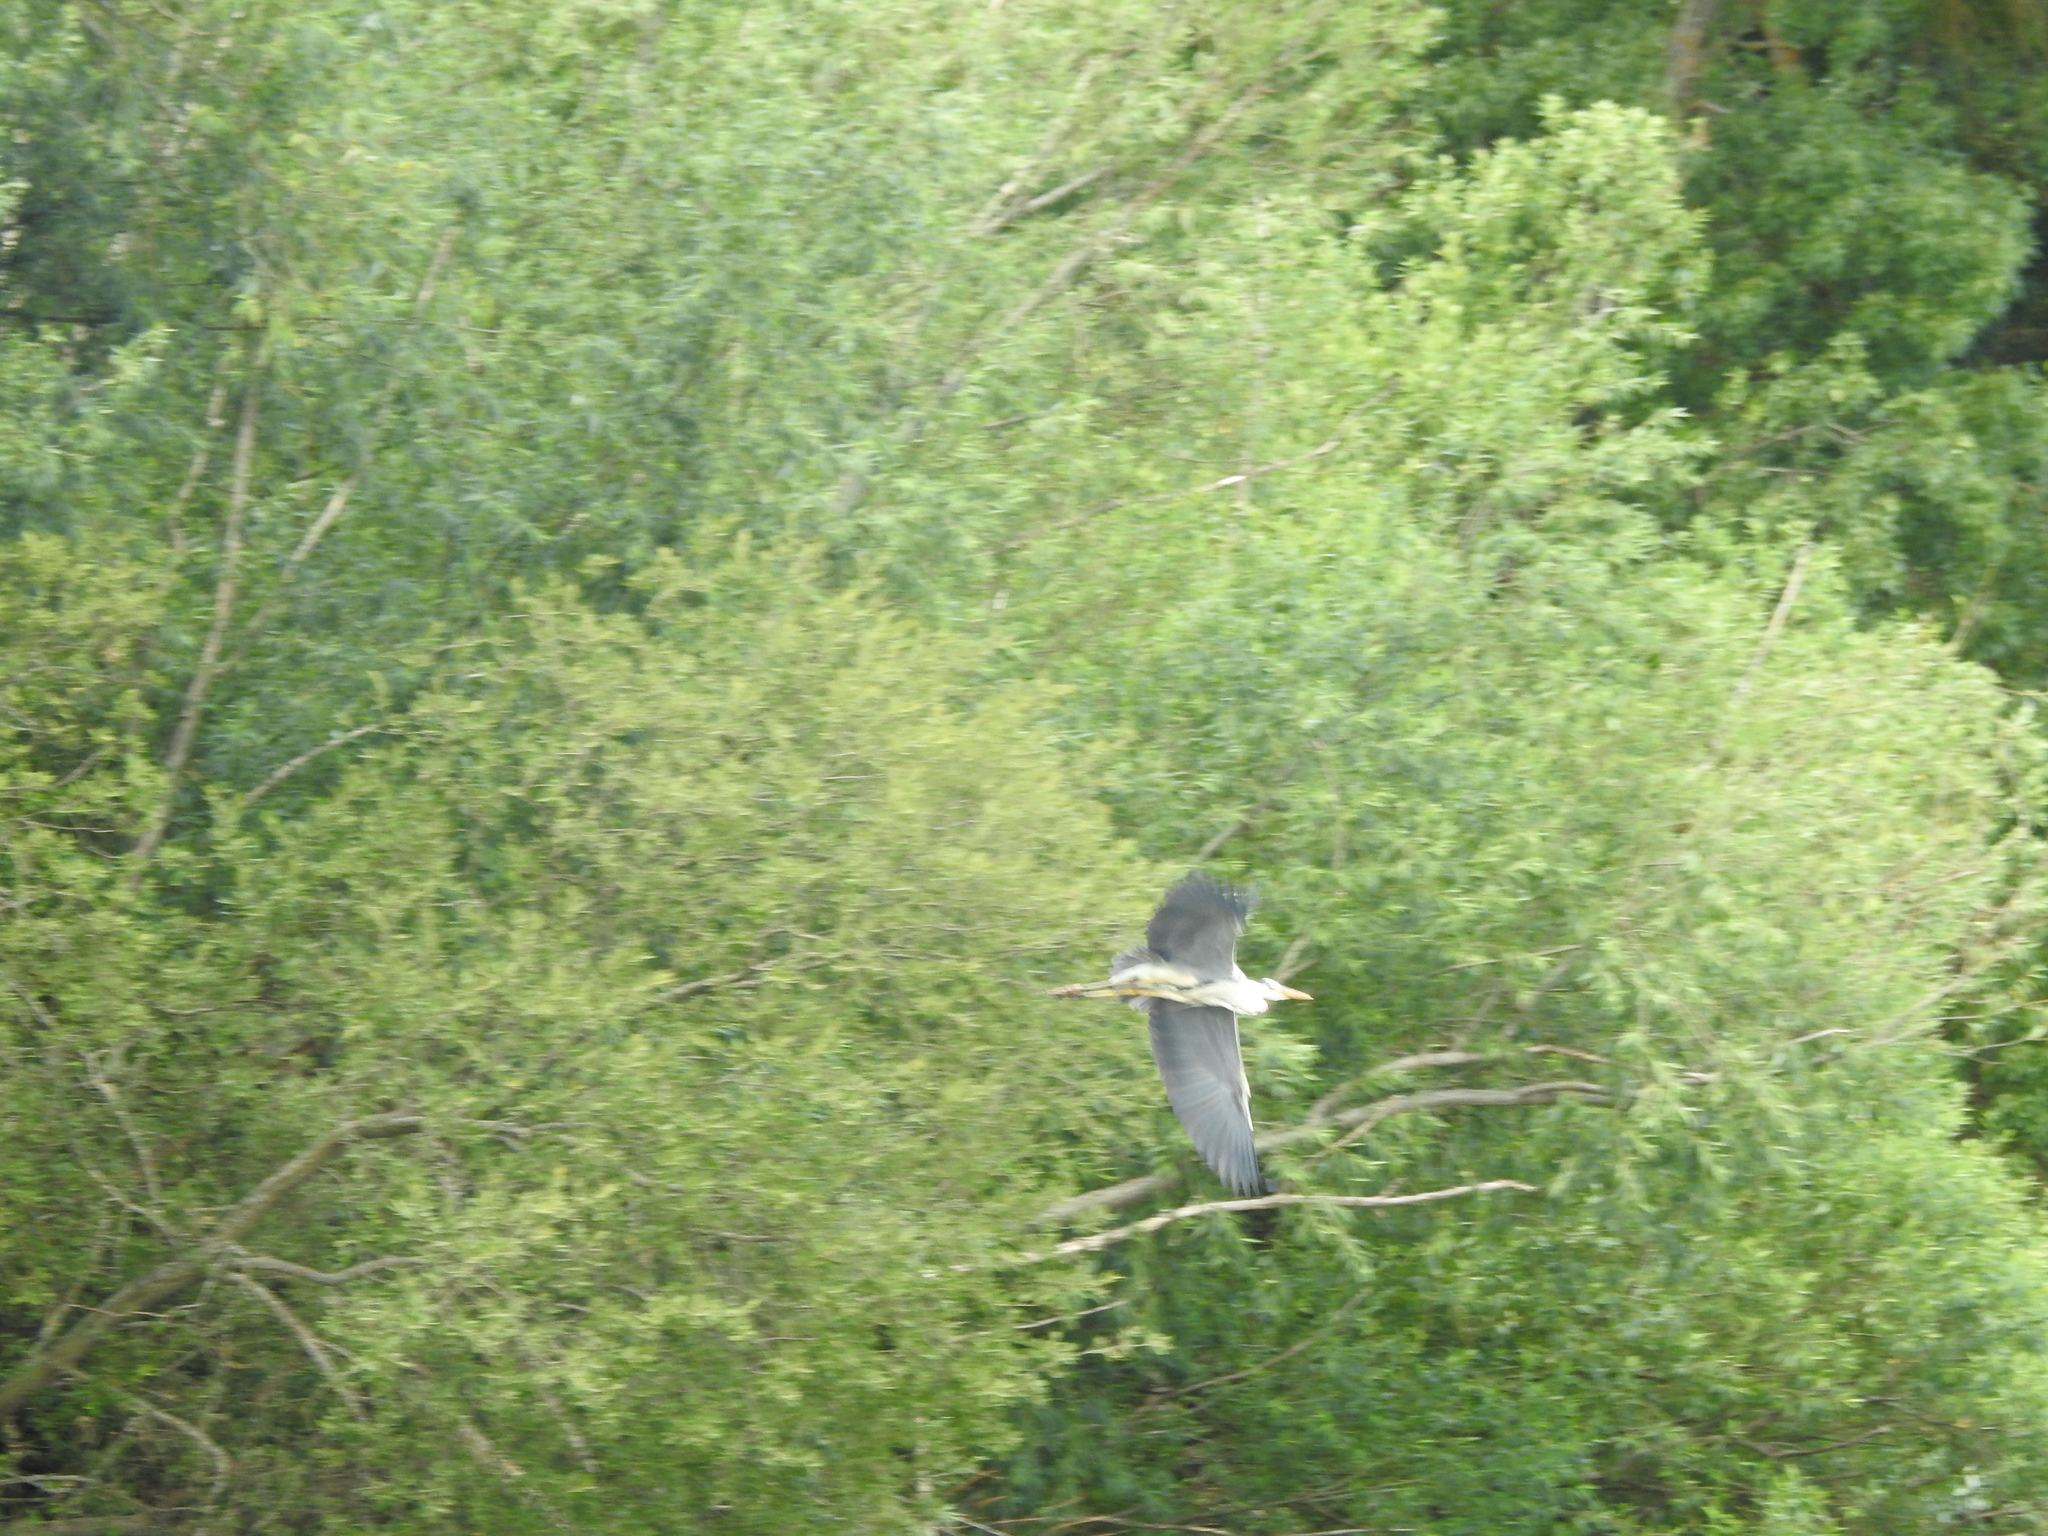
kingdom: Animalia
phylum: Chordata
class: Aves
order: Pelecaniformes
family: Ardeidae
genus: Ardea
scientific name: Ardea cinerea
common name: Grey heron
